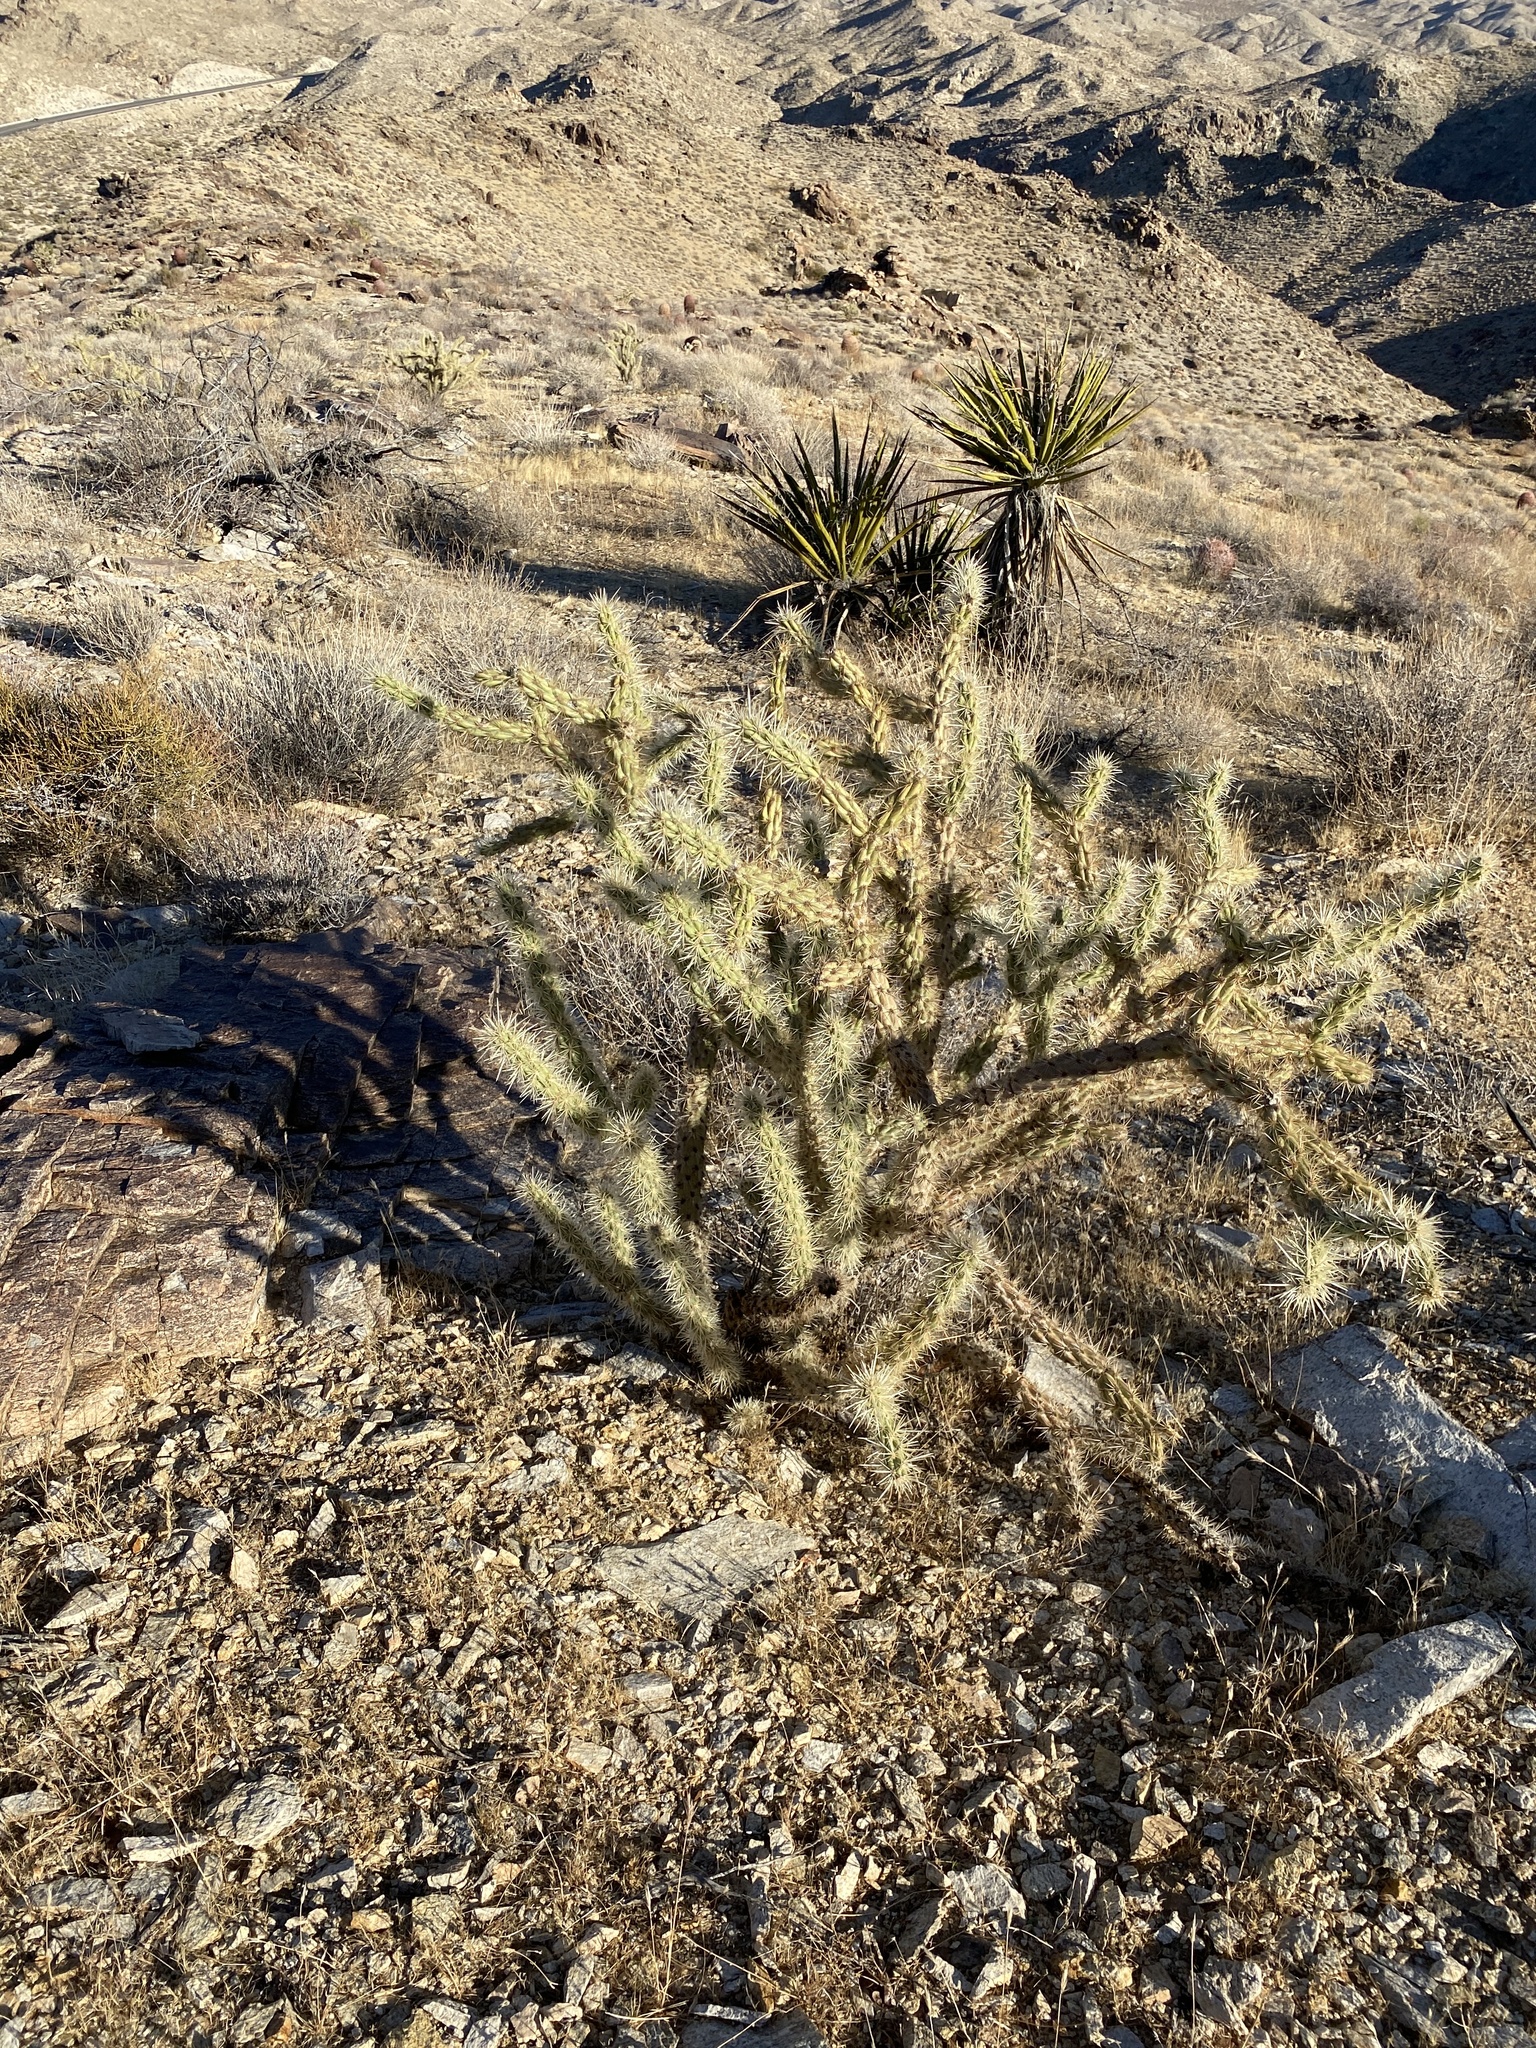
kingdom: Plantae
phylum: Tracheophyta
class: Magnoliopsida
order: Caryophyllales
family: Cactaceae
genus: Cylindropuntia
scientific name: Cylindropuntia acanthocarpa
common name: Buckhorn cholla
